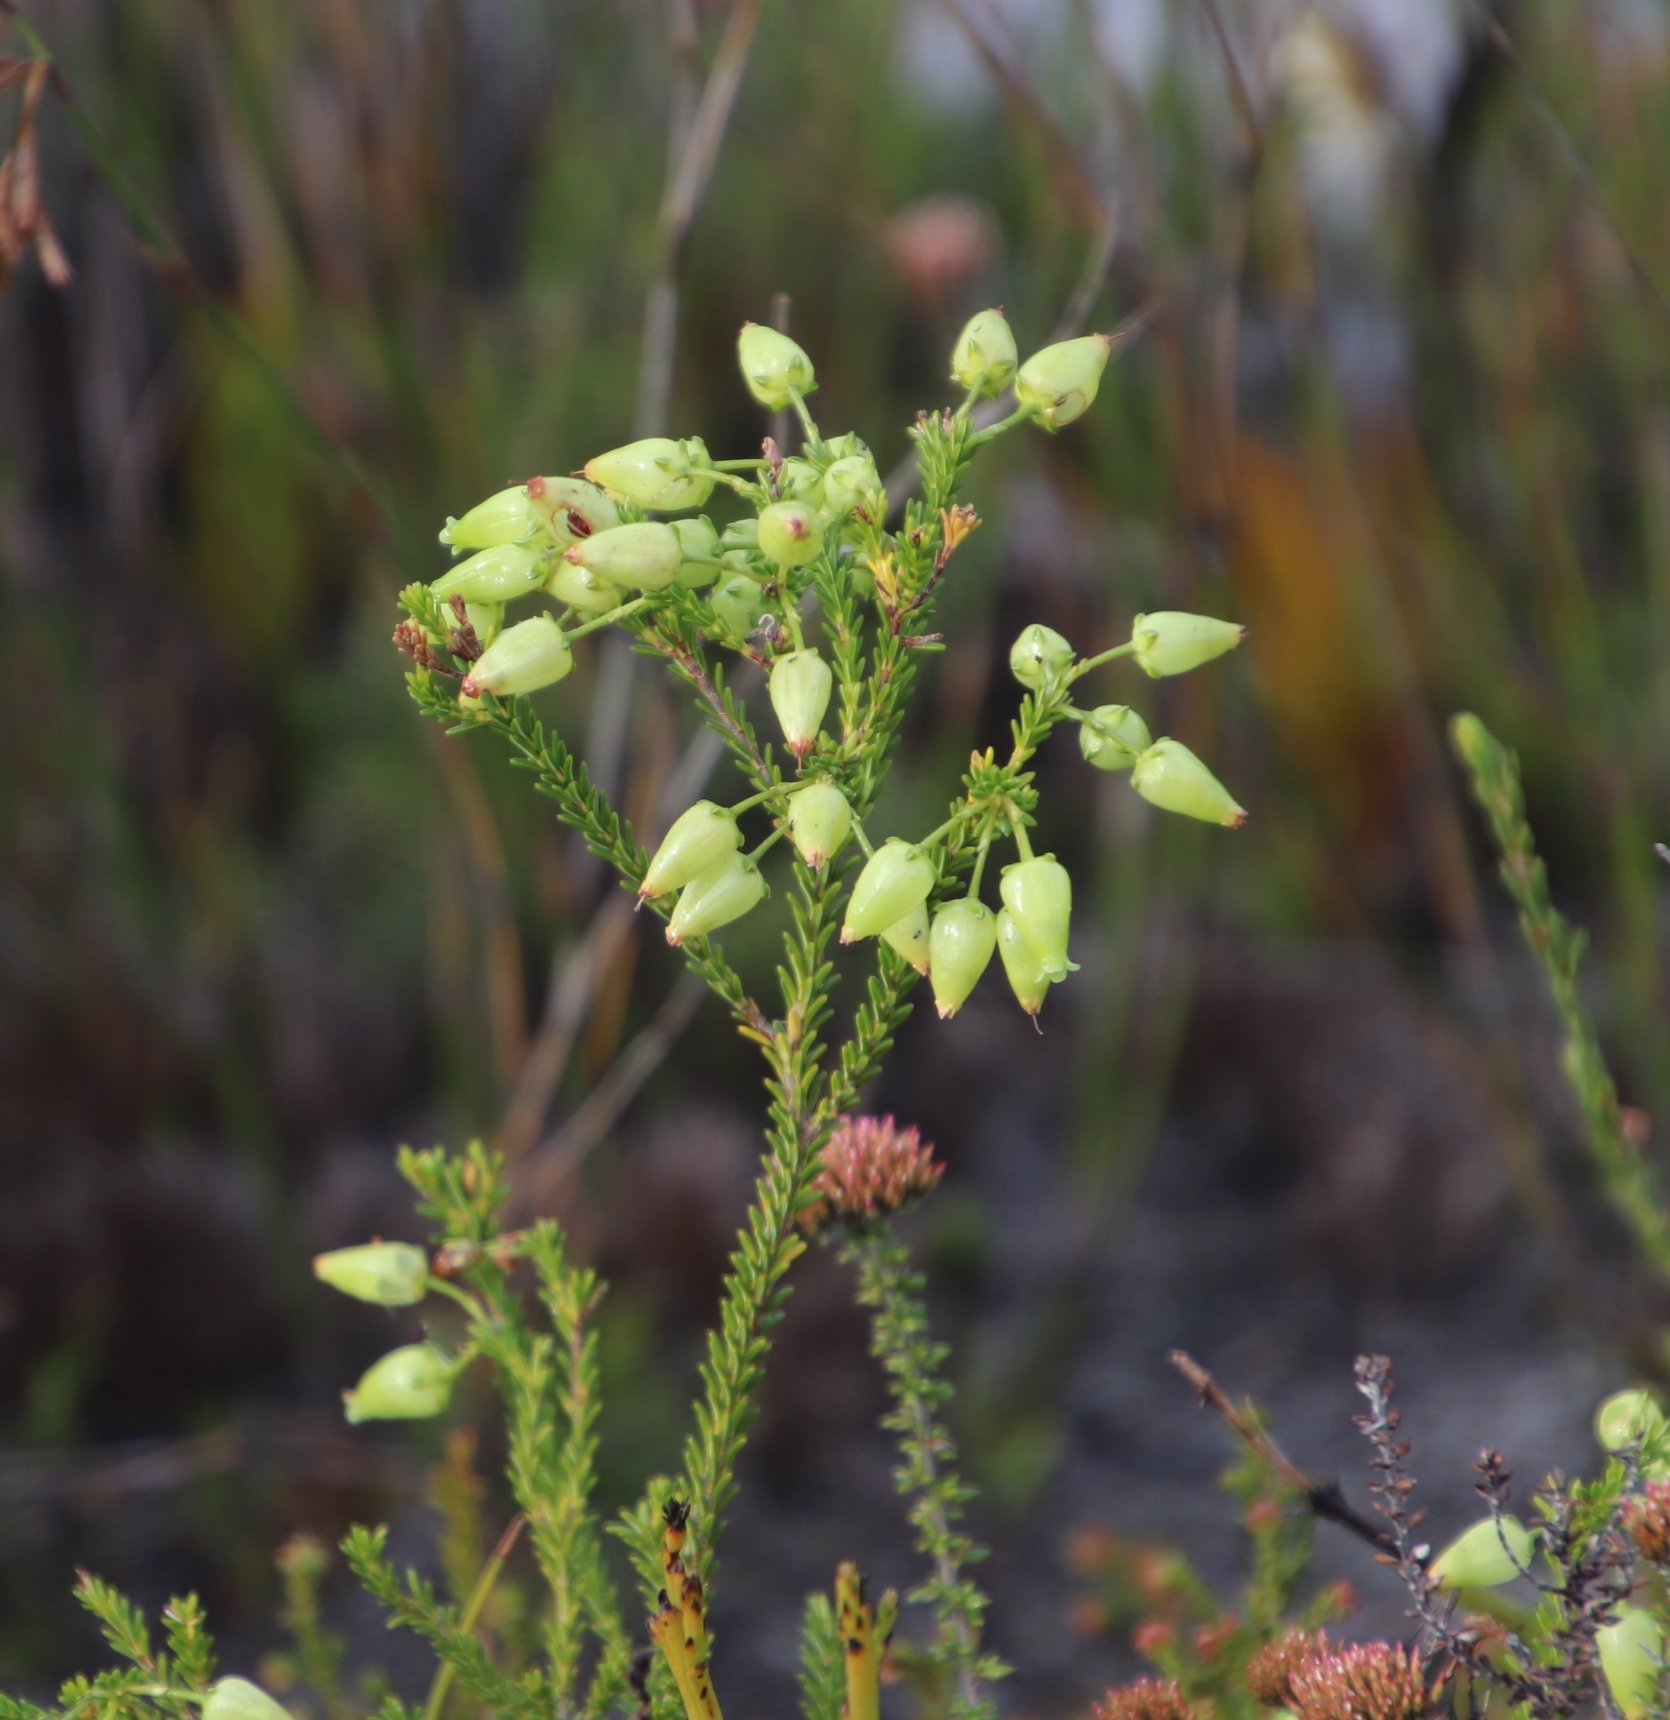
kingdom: Plantae
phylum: Tracheophyta
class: Magnoliopsida
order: Ericales
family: Ericaceae
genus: Erica
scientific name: Erica urna-viridis
